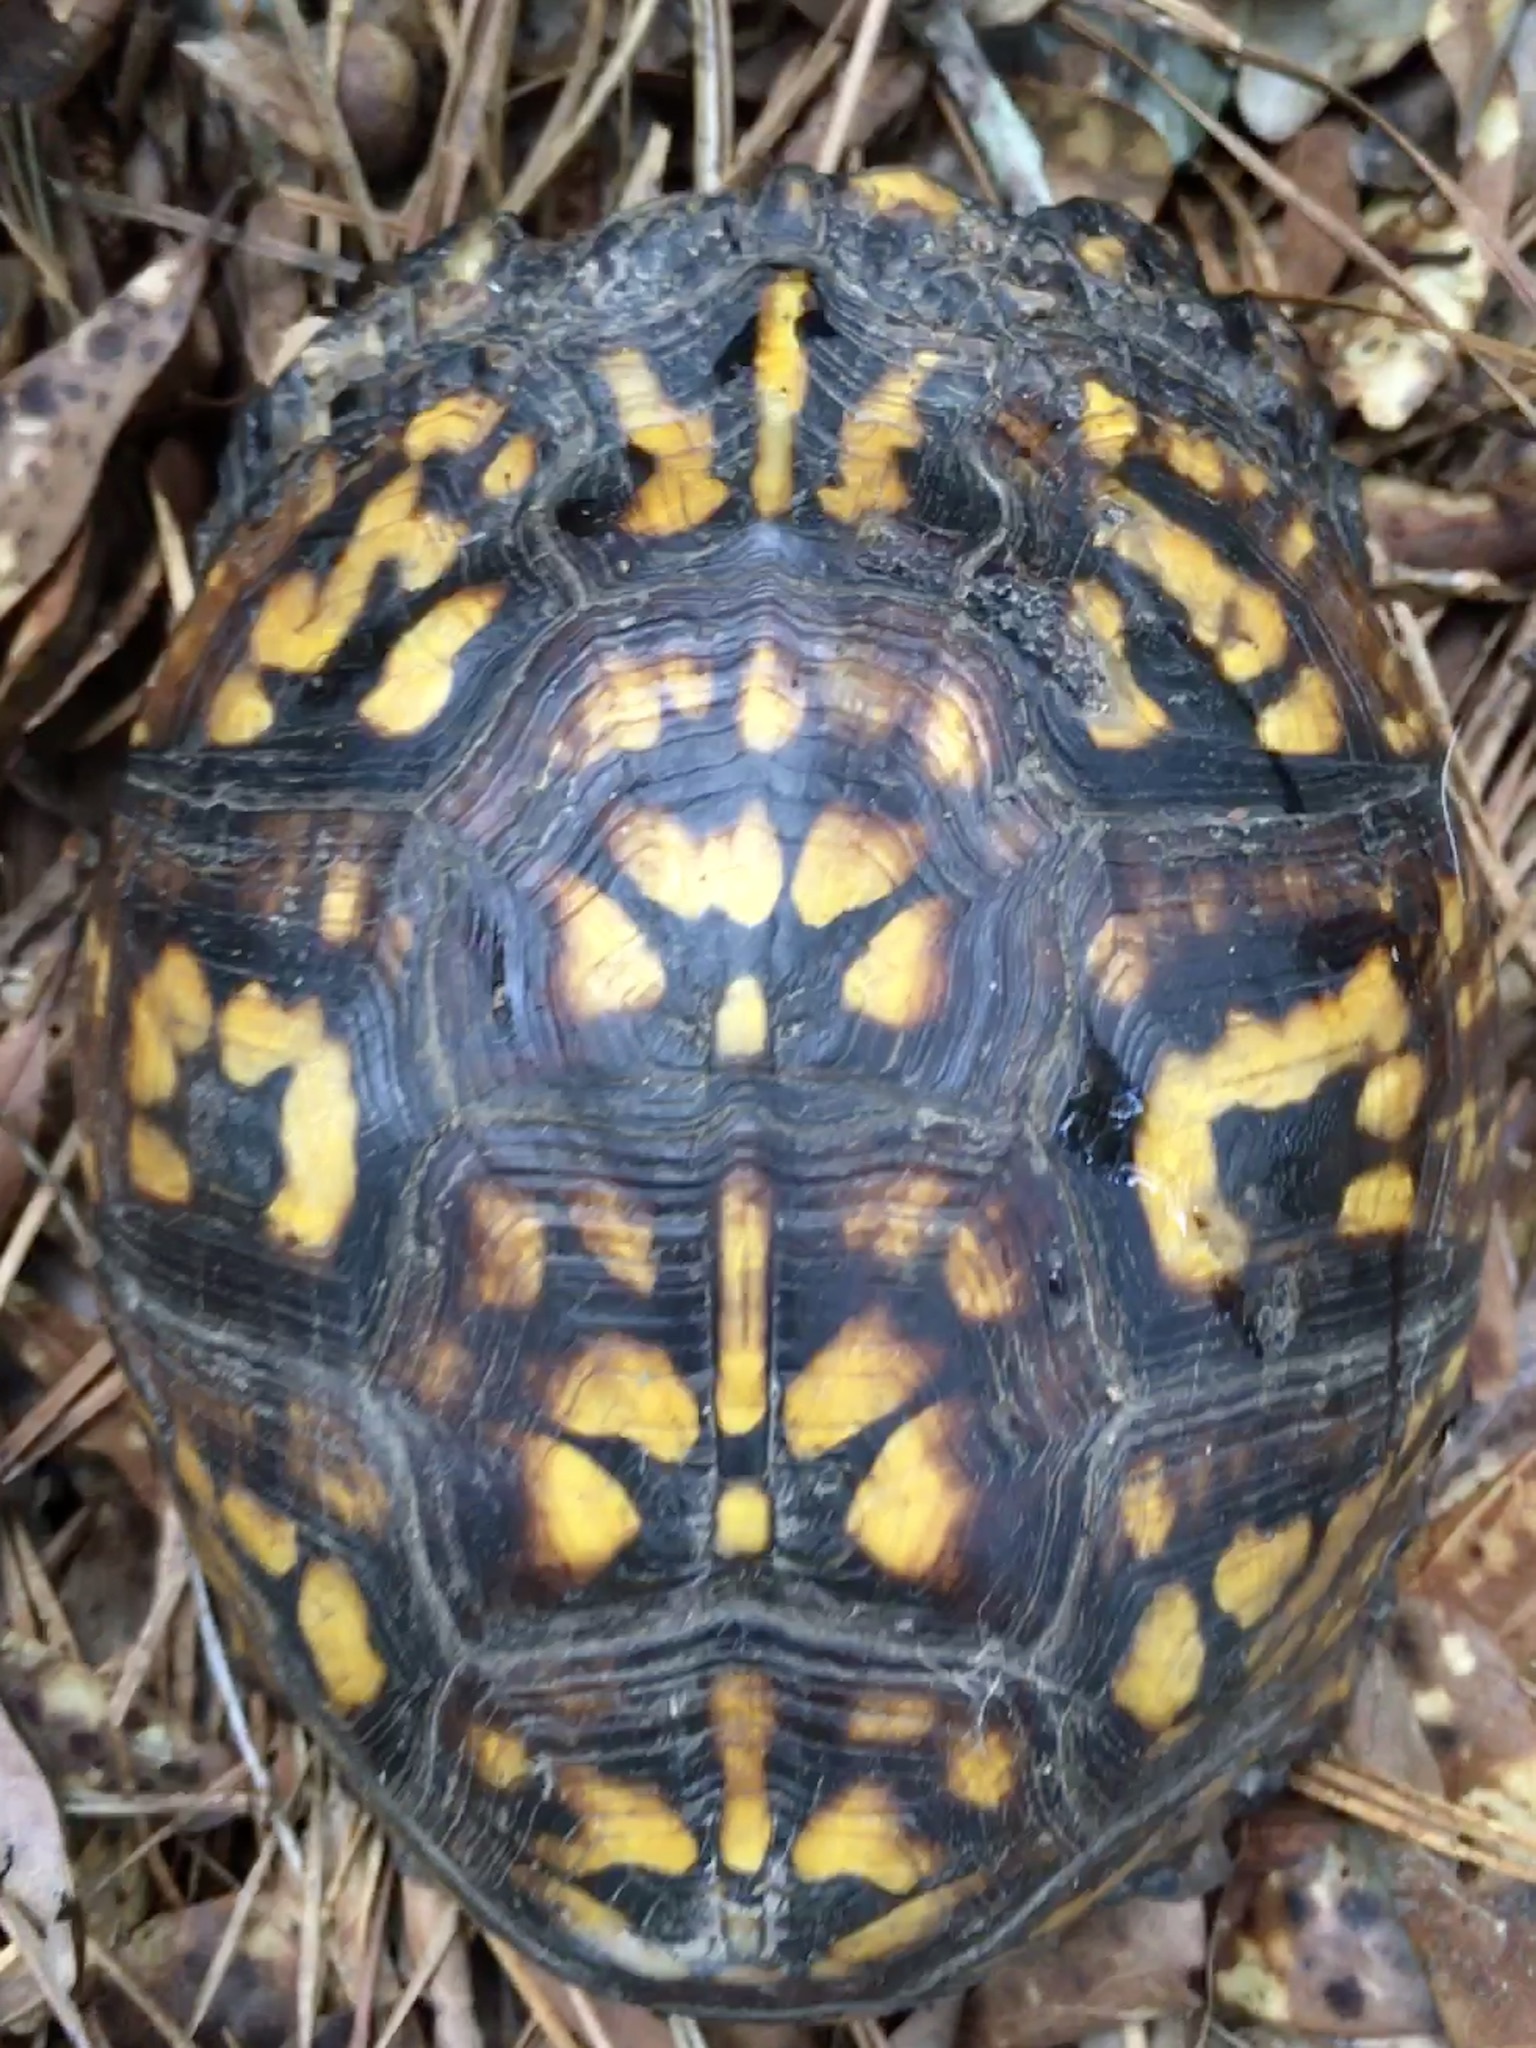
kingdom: Animalia
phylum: Chordata
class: Testudines
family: Emydidae
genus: Terrapene
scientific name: Terrapene carolina
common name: Common box turtle
